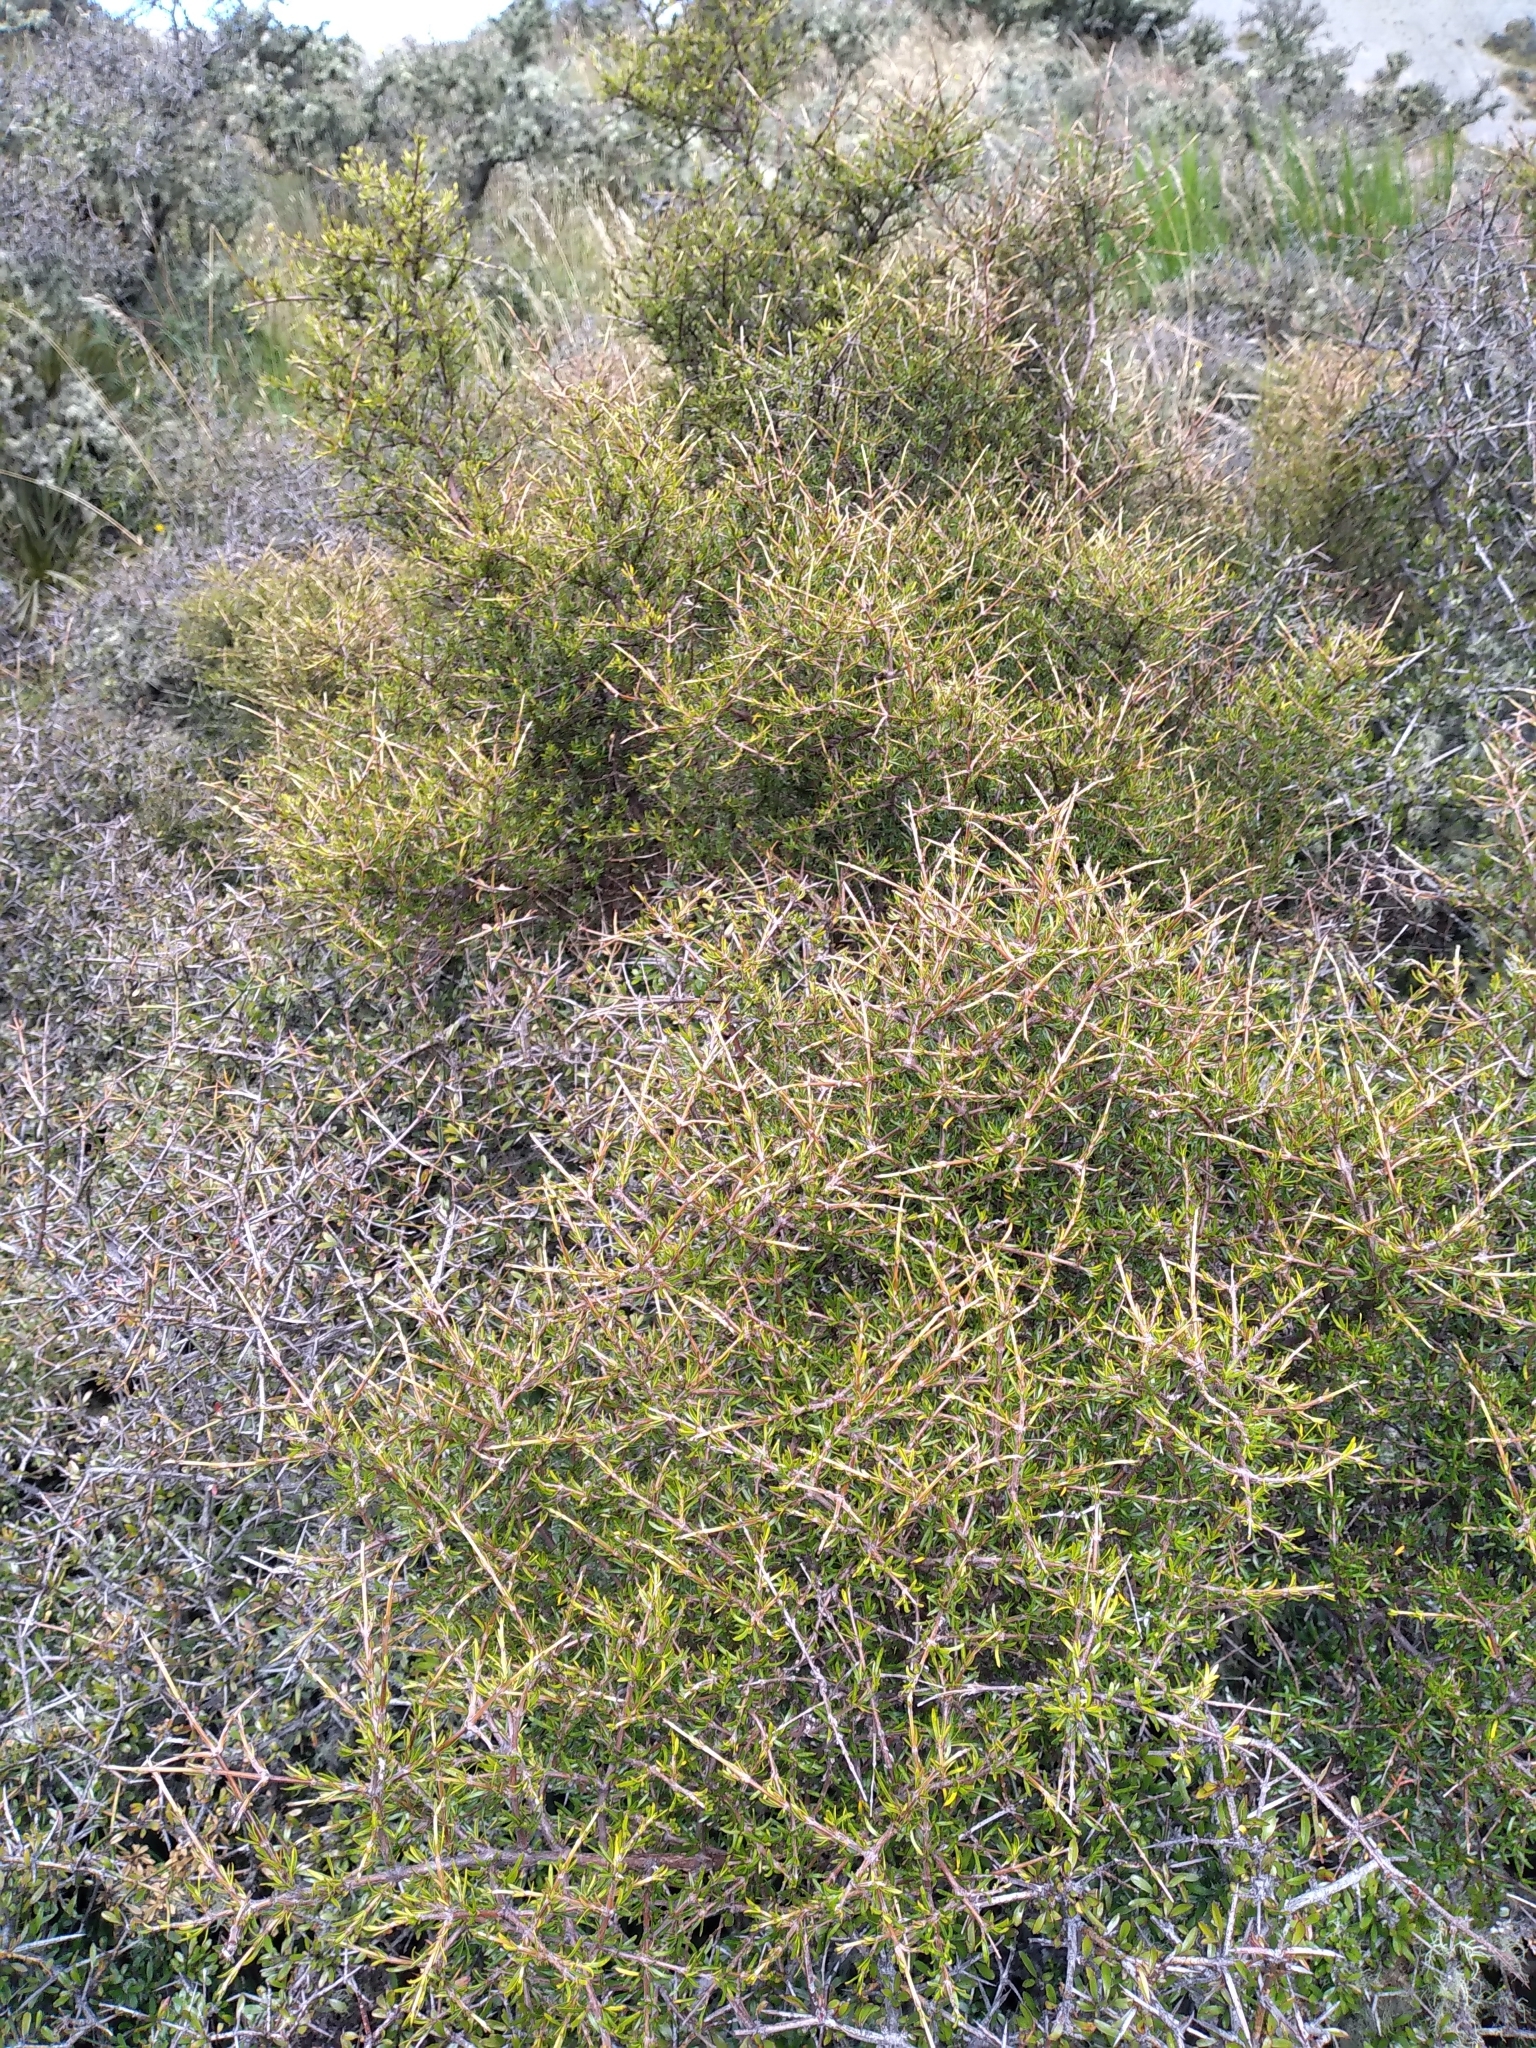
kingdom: Plantae
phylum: Tracheophyta
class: Magnoliopsida
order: Gentianales
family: Rubiaceae
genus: Coprosma
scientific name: Coprosma rugosa
